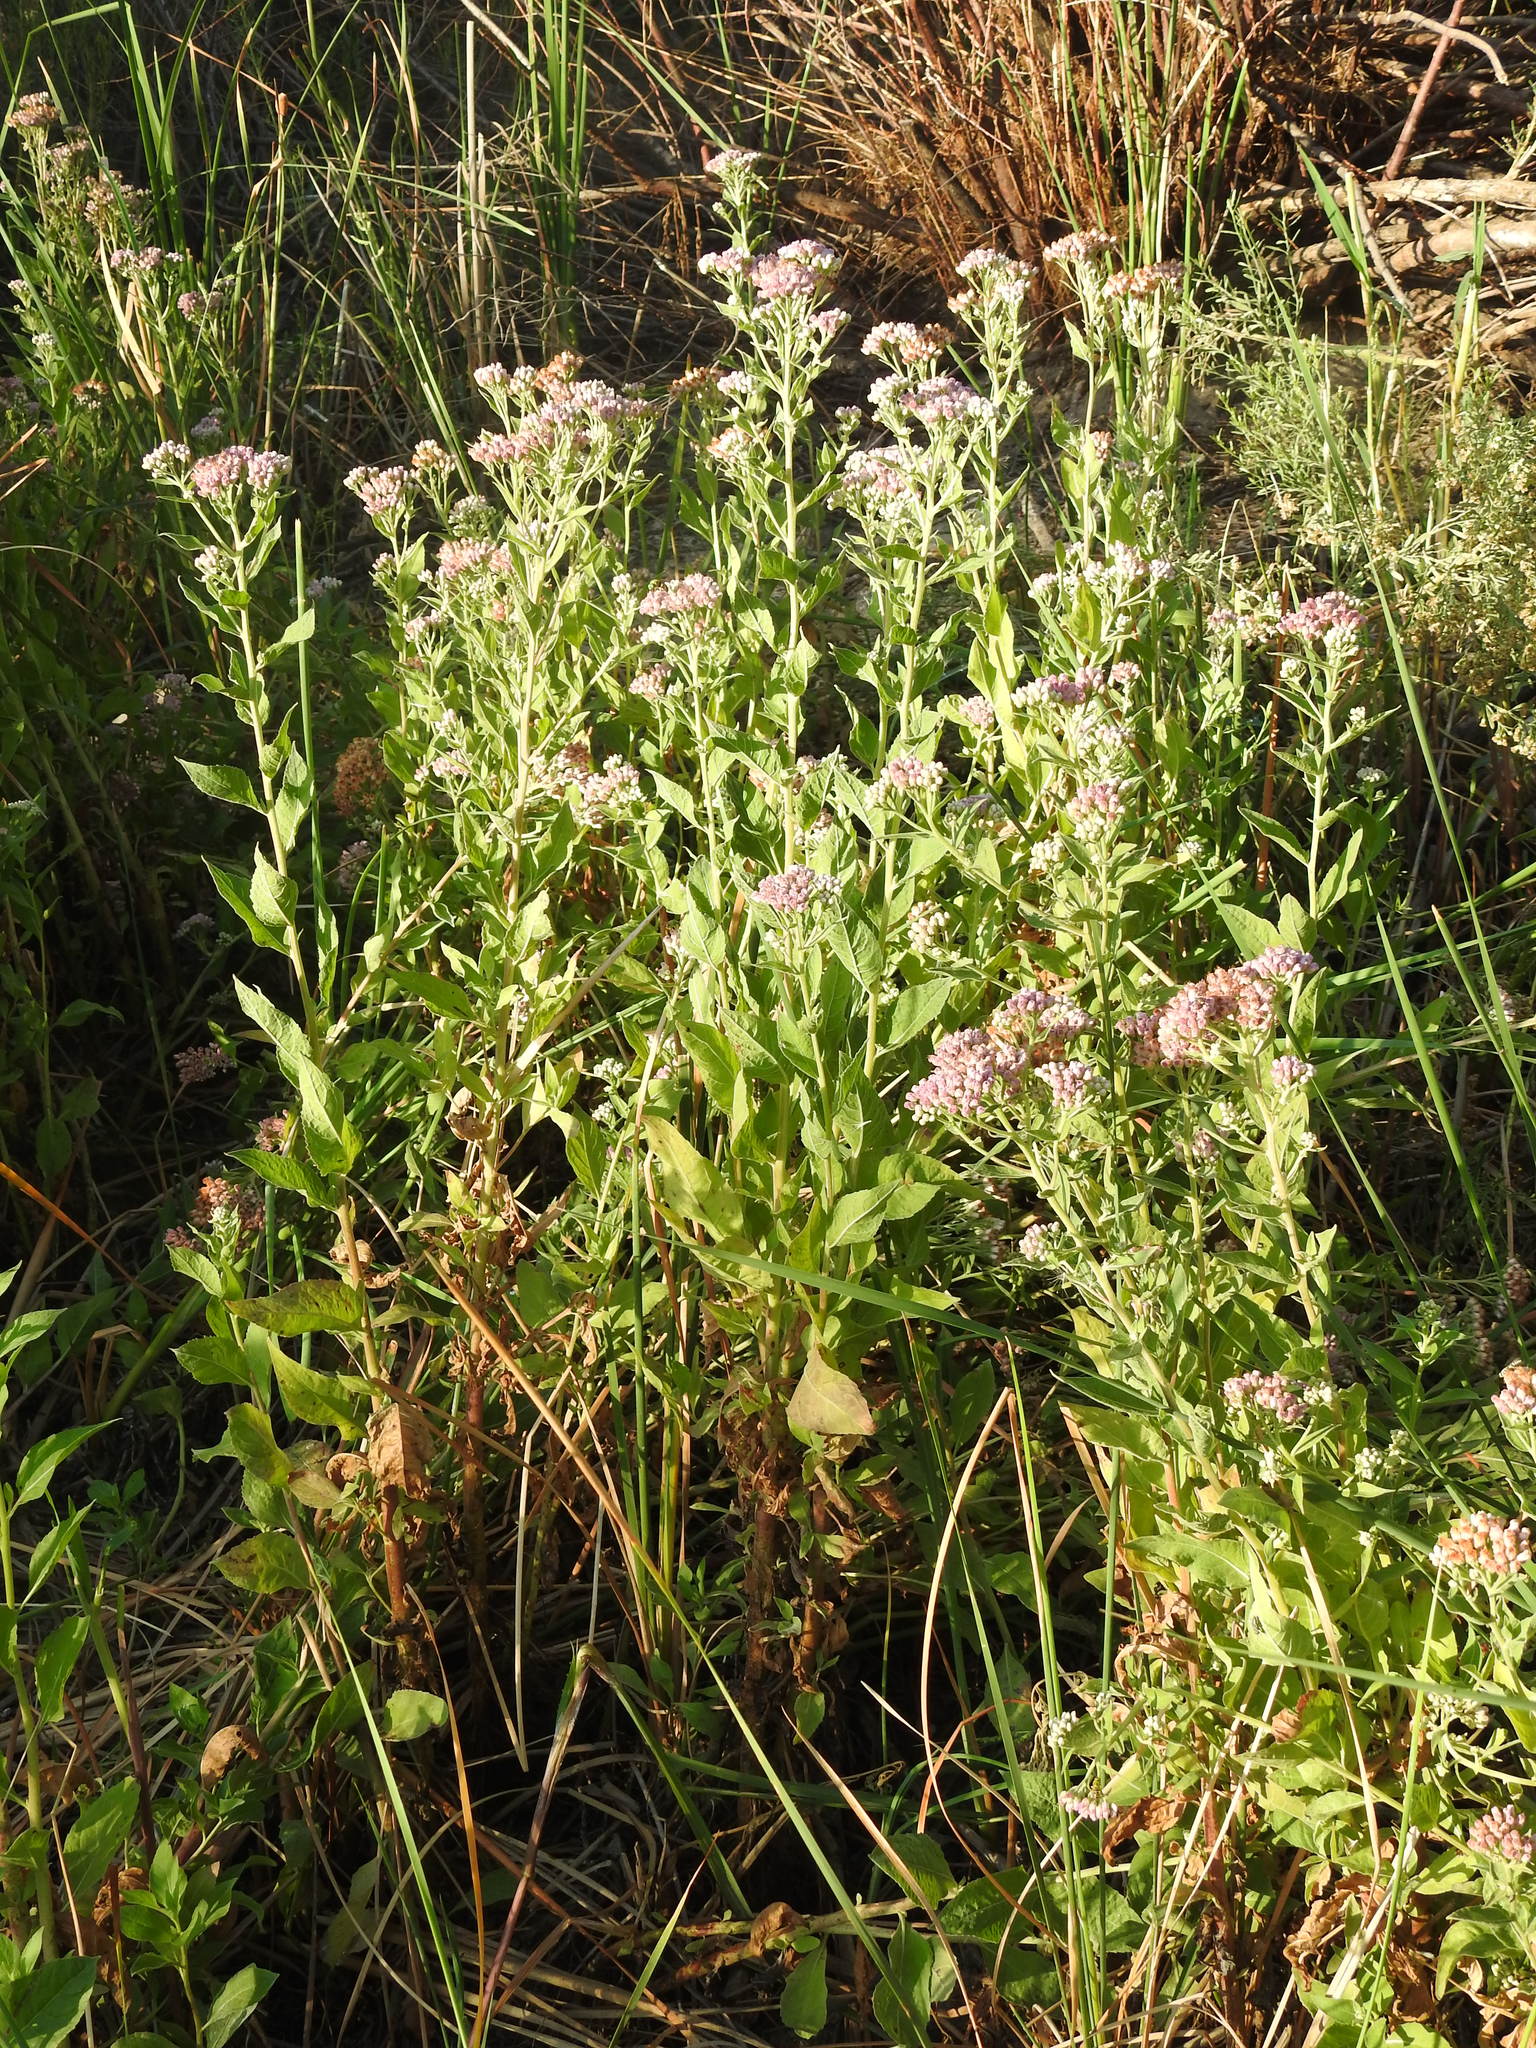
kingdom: Plantae
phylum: Tracheophyta
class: Magnoliopsida
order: Asterales
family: Asteraceae
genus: Pluchea
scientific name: Pluchea odorata
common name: Saltmarsh fleabane
